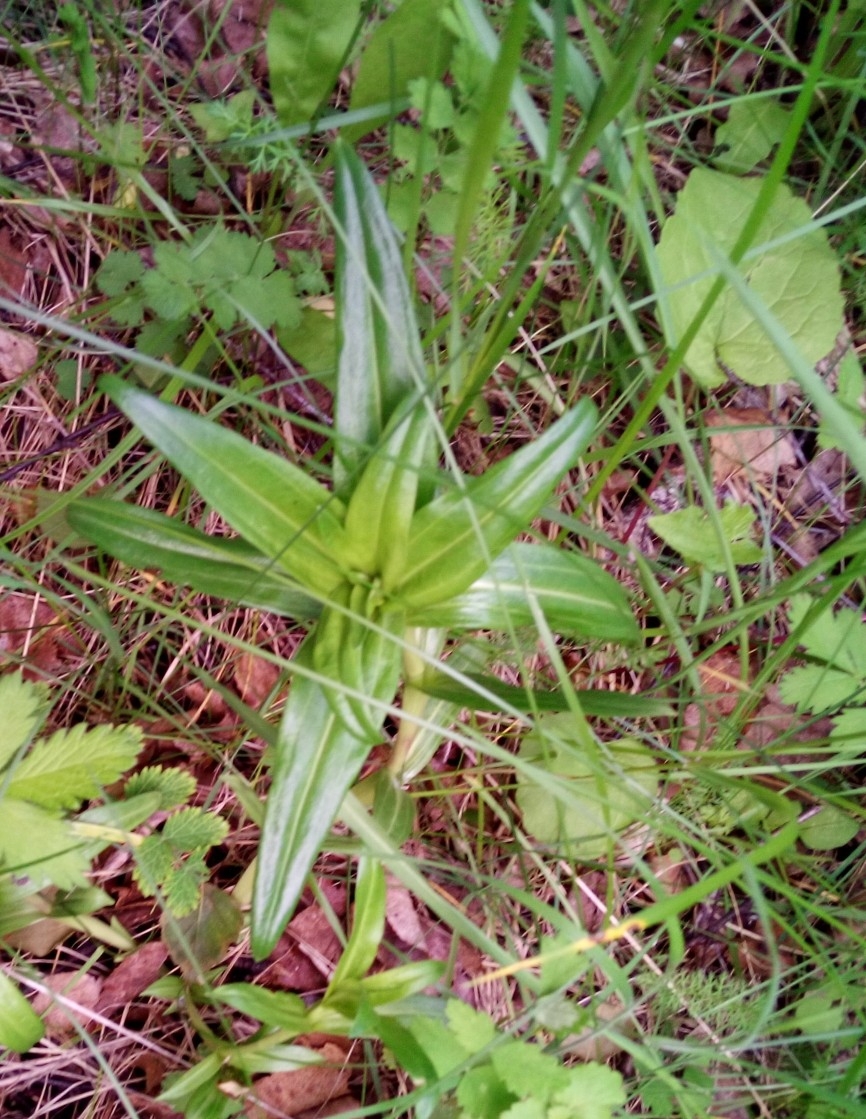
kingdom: Plantae
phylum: Tracheophyta
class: Magnoliopsida
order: Gentianales
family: Gentianaceae
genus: Gentiana
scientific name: Gentiana cruciata
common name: Cross gentian
